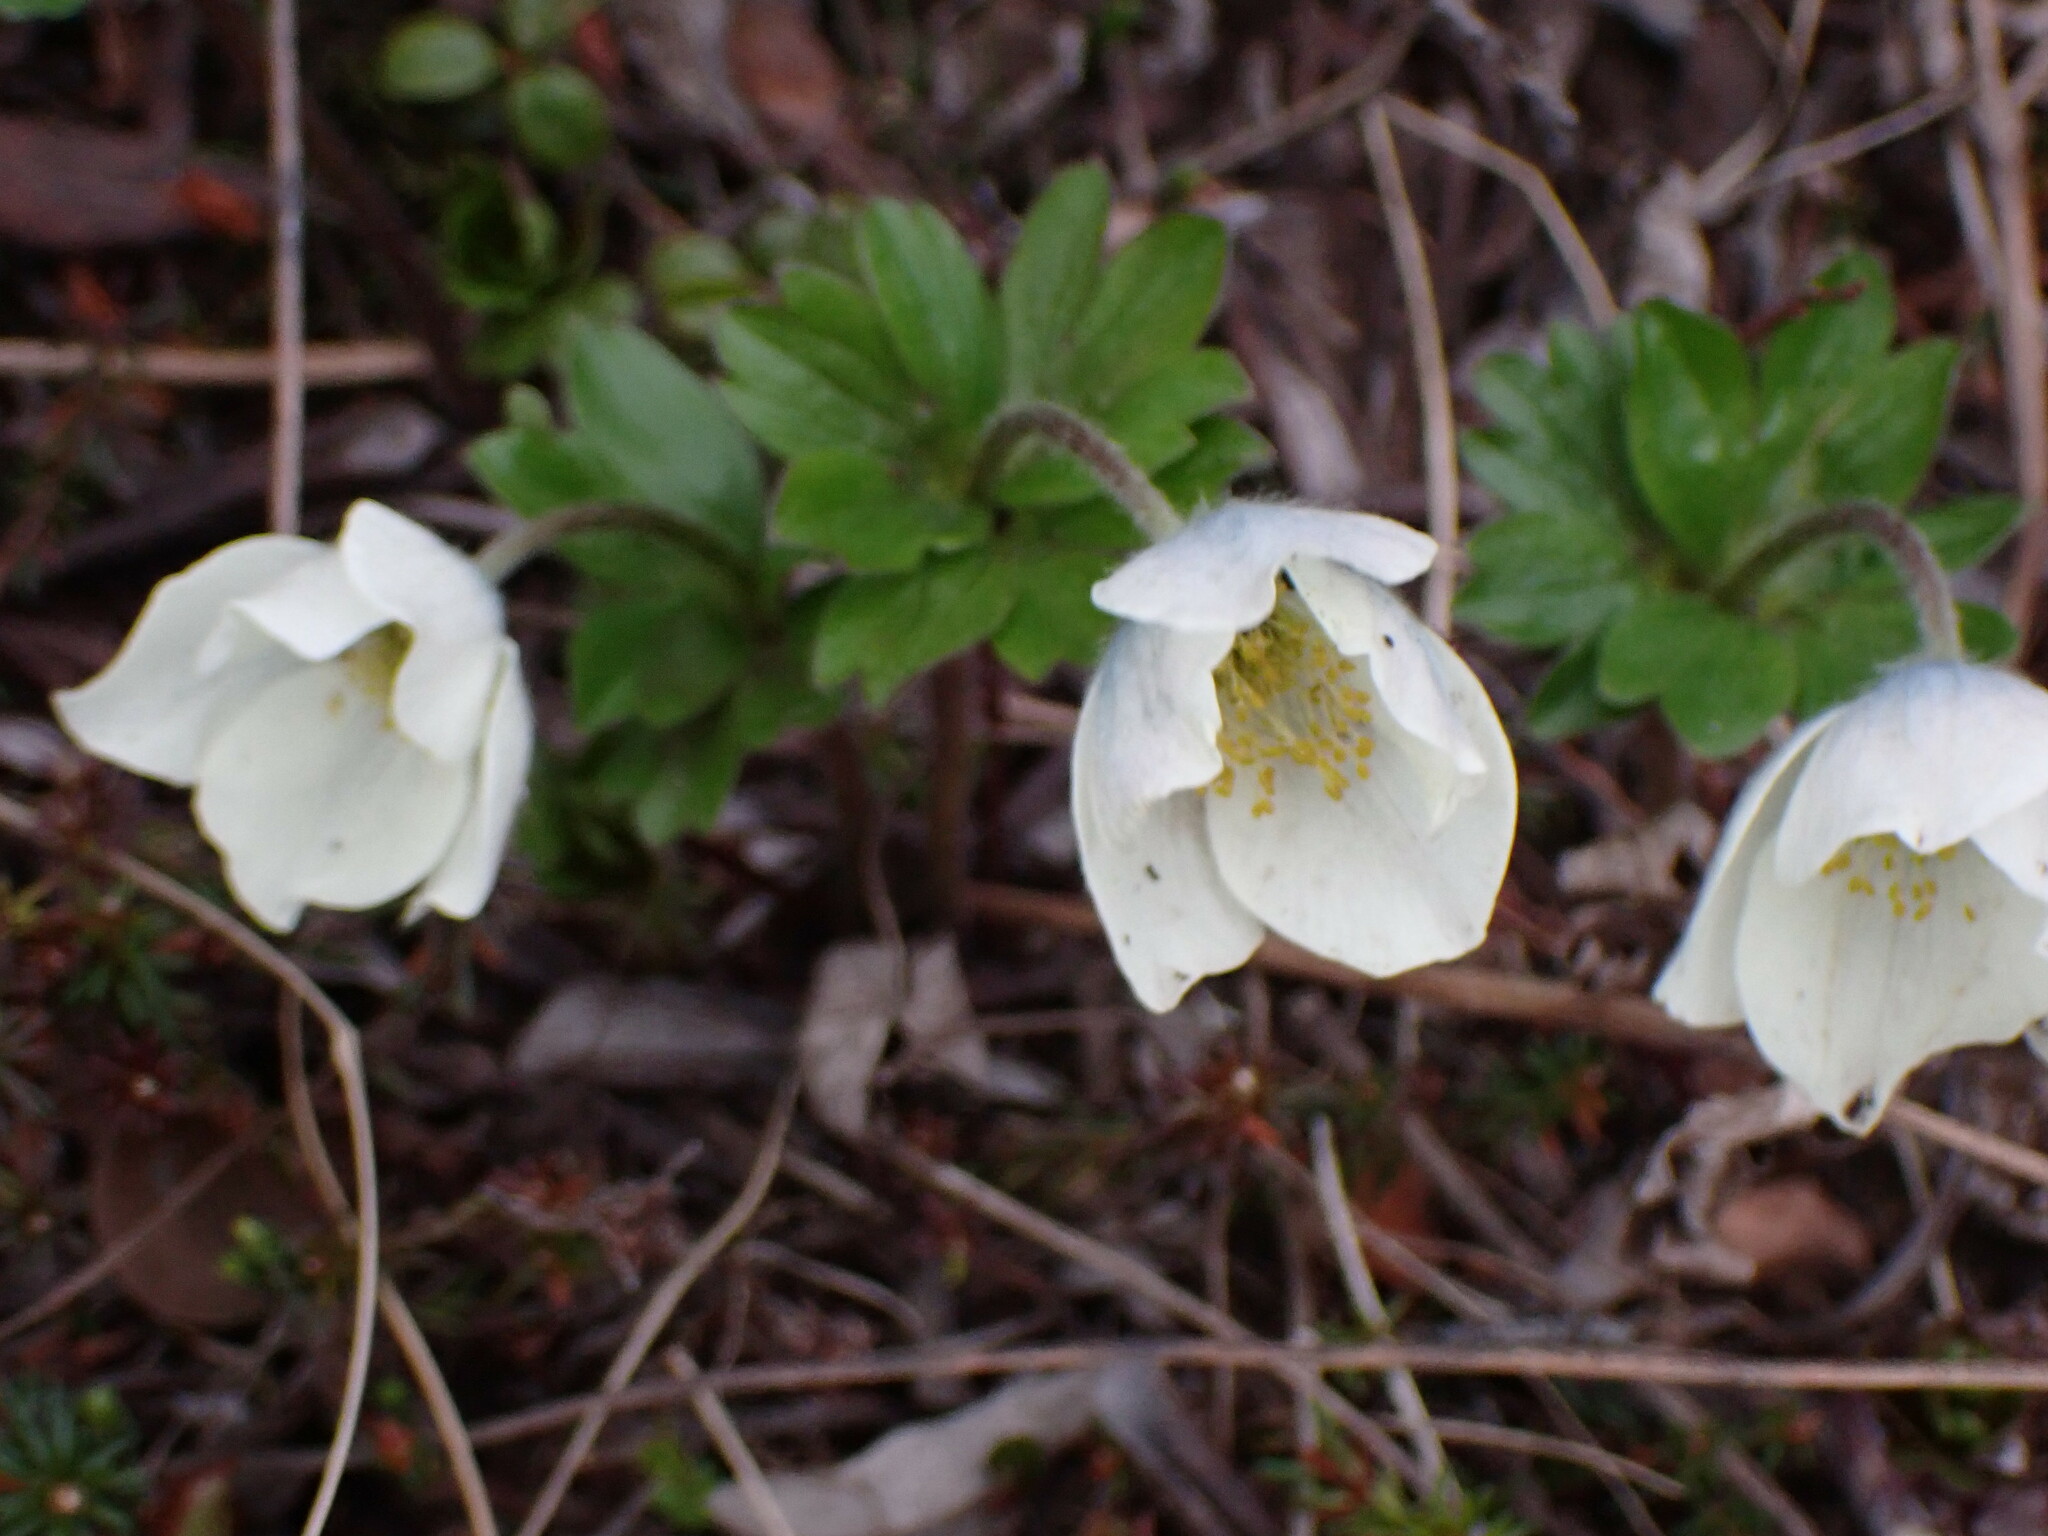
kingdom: Plantae
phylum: Tracheophyta
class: Magnoliopsida
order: Ranunculales
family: Ranunculaceae
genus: Anemone
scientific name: Anemone parviflora
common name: Northern anemone
